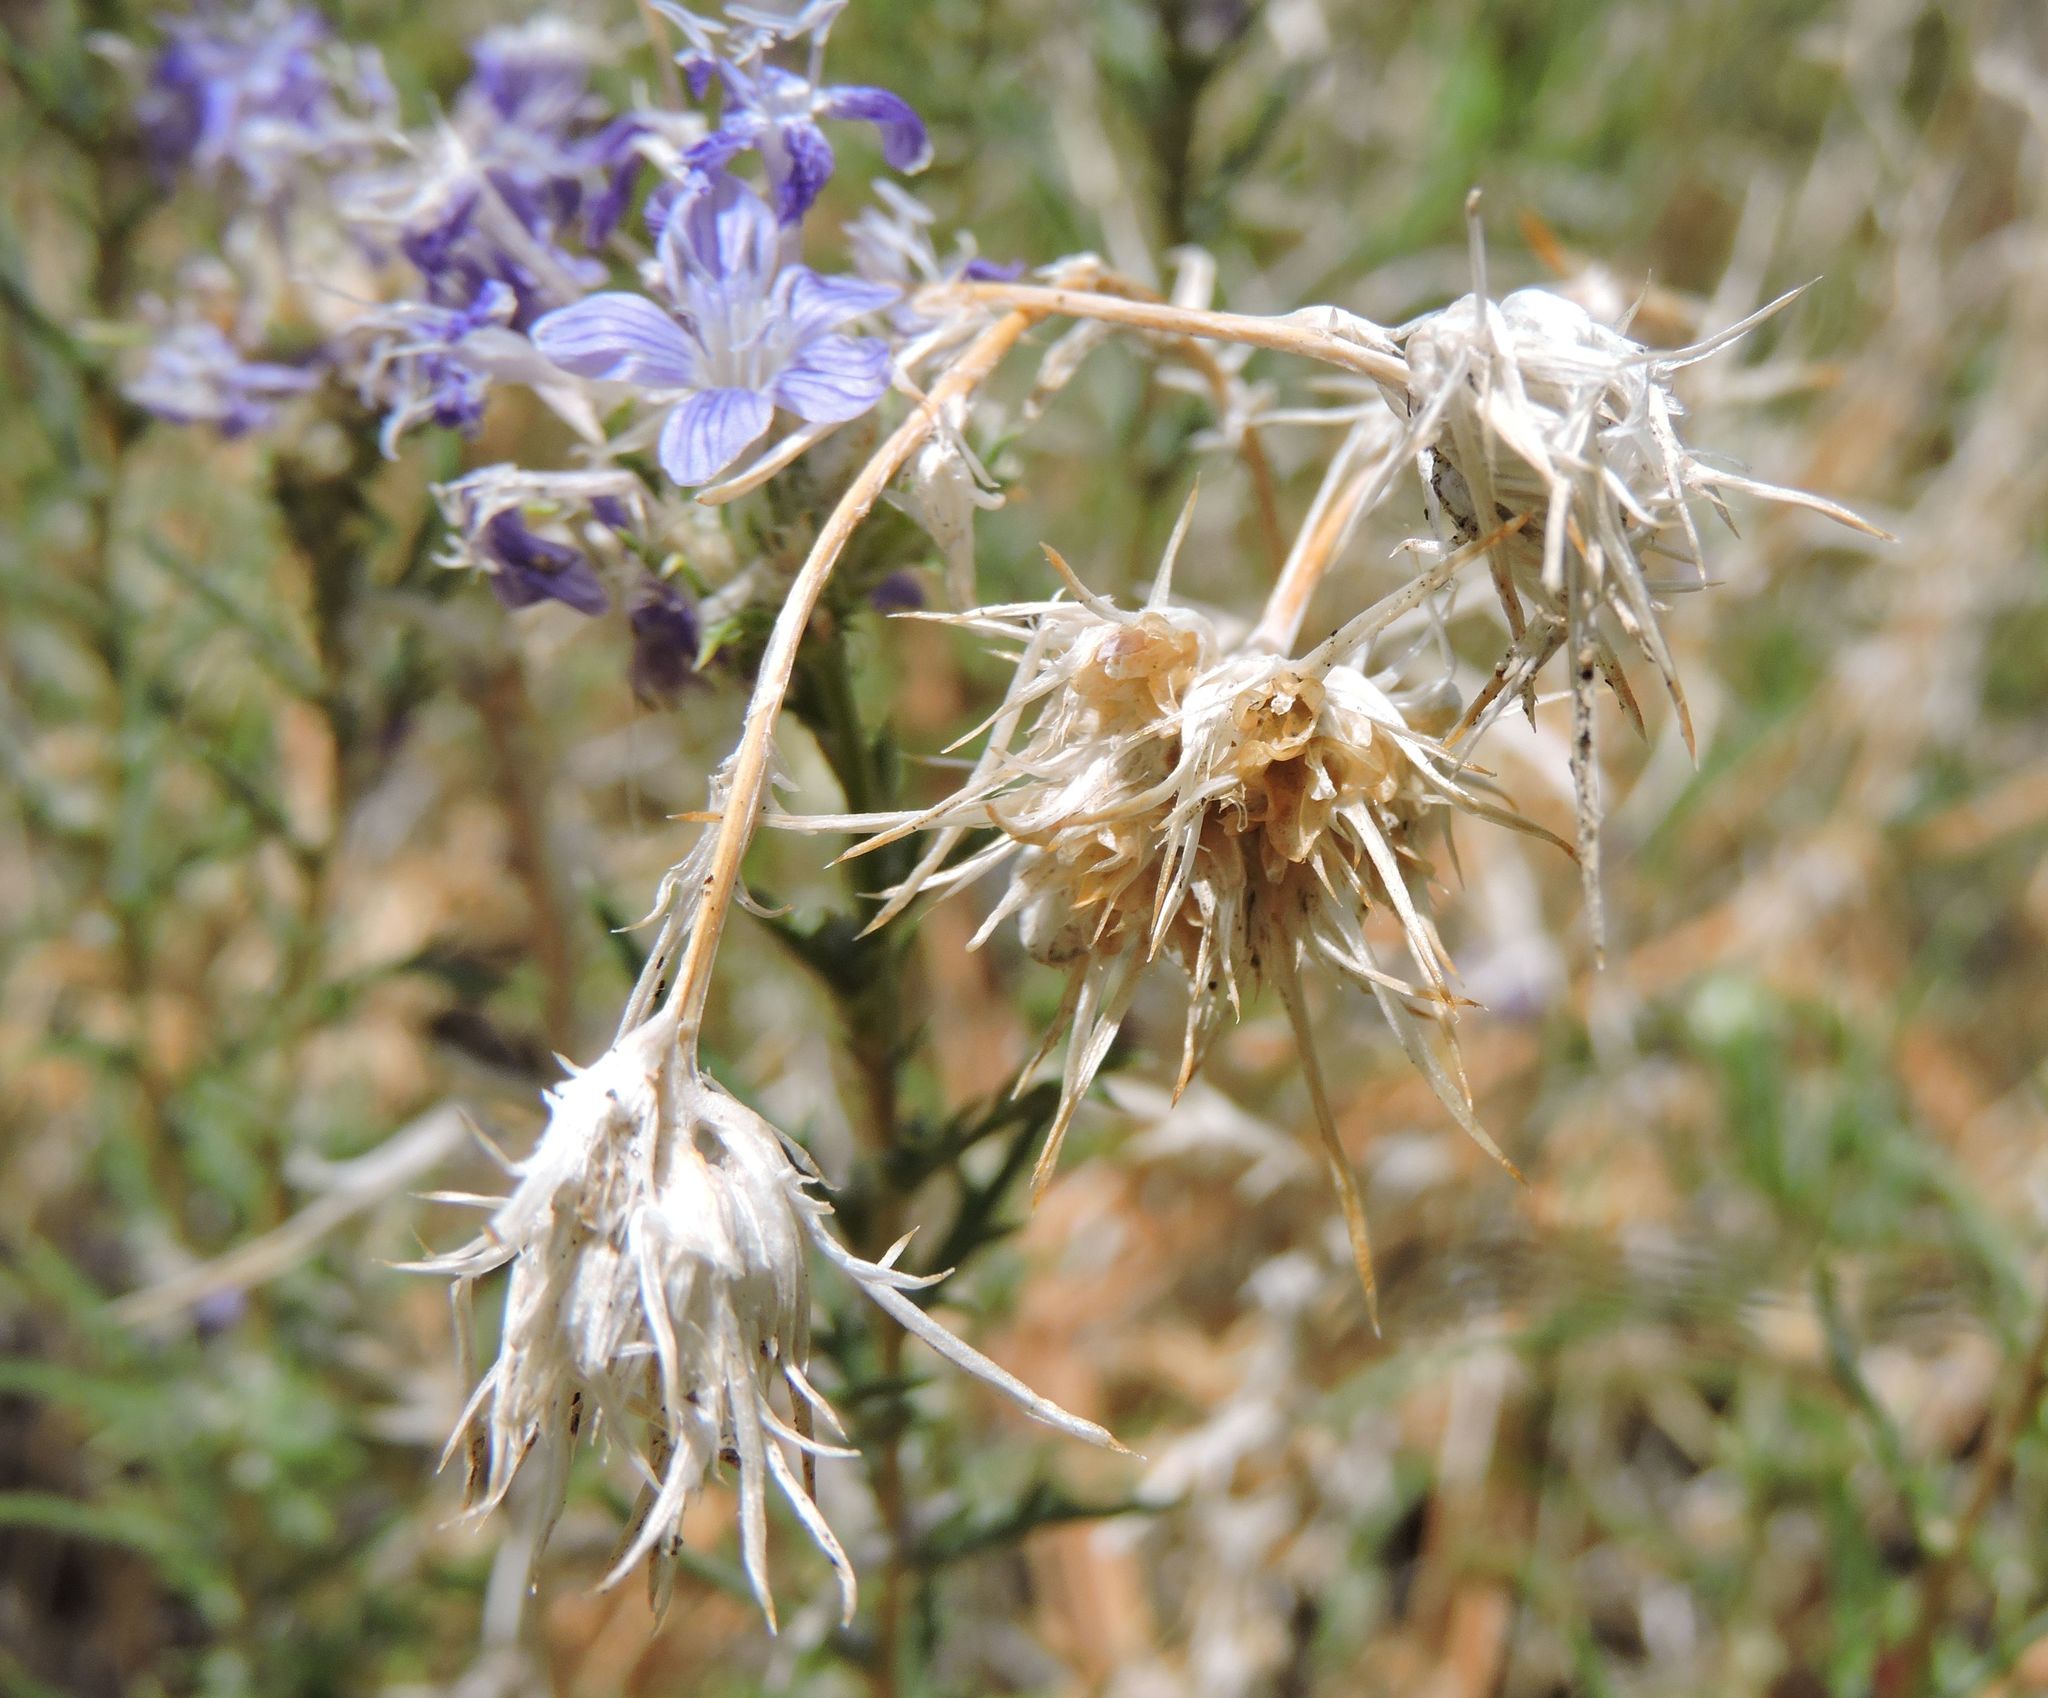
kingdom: Plantae
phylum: Tracheophyta
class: Magnoliopsida
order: Ericales
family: Polemoniaceae
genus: Eriastrum
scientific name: Eriastrum densifolium
